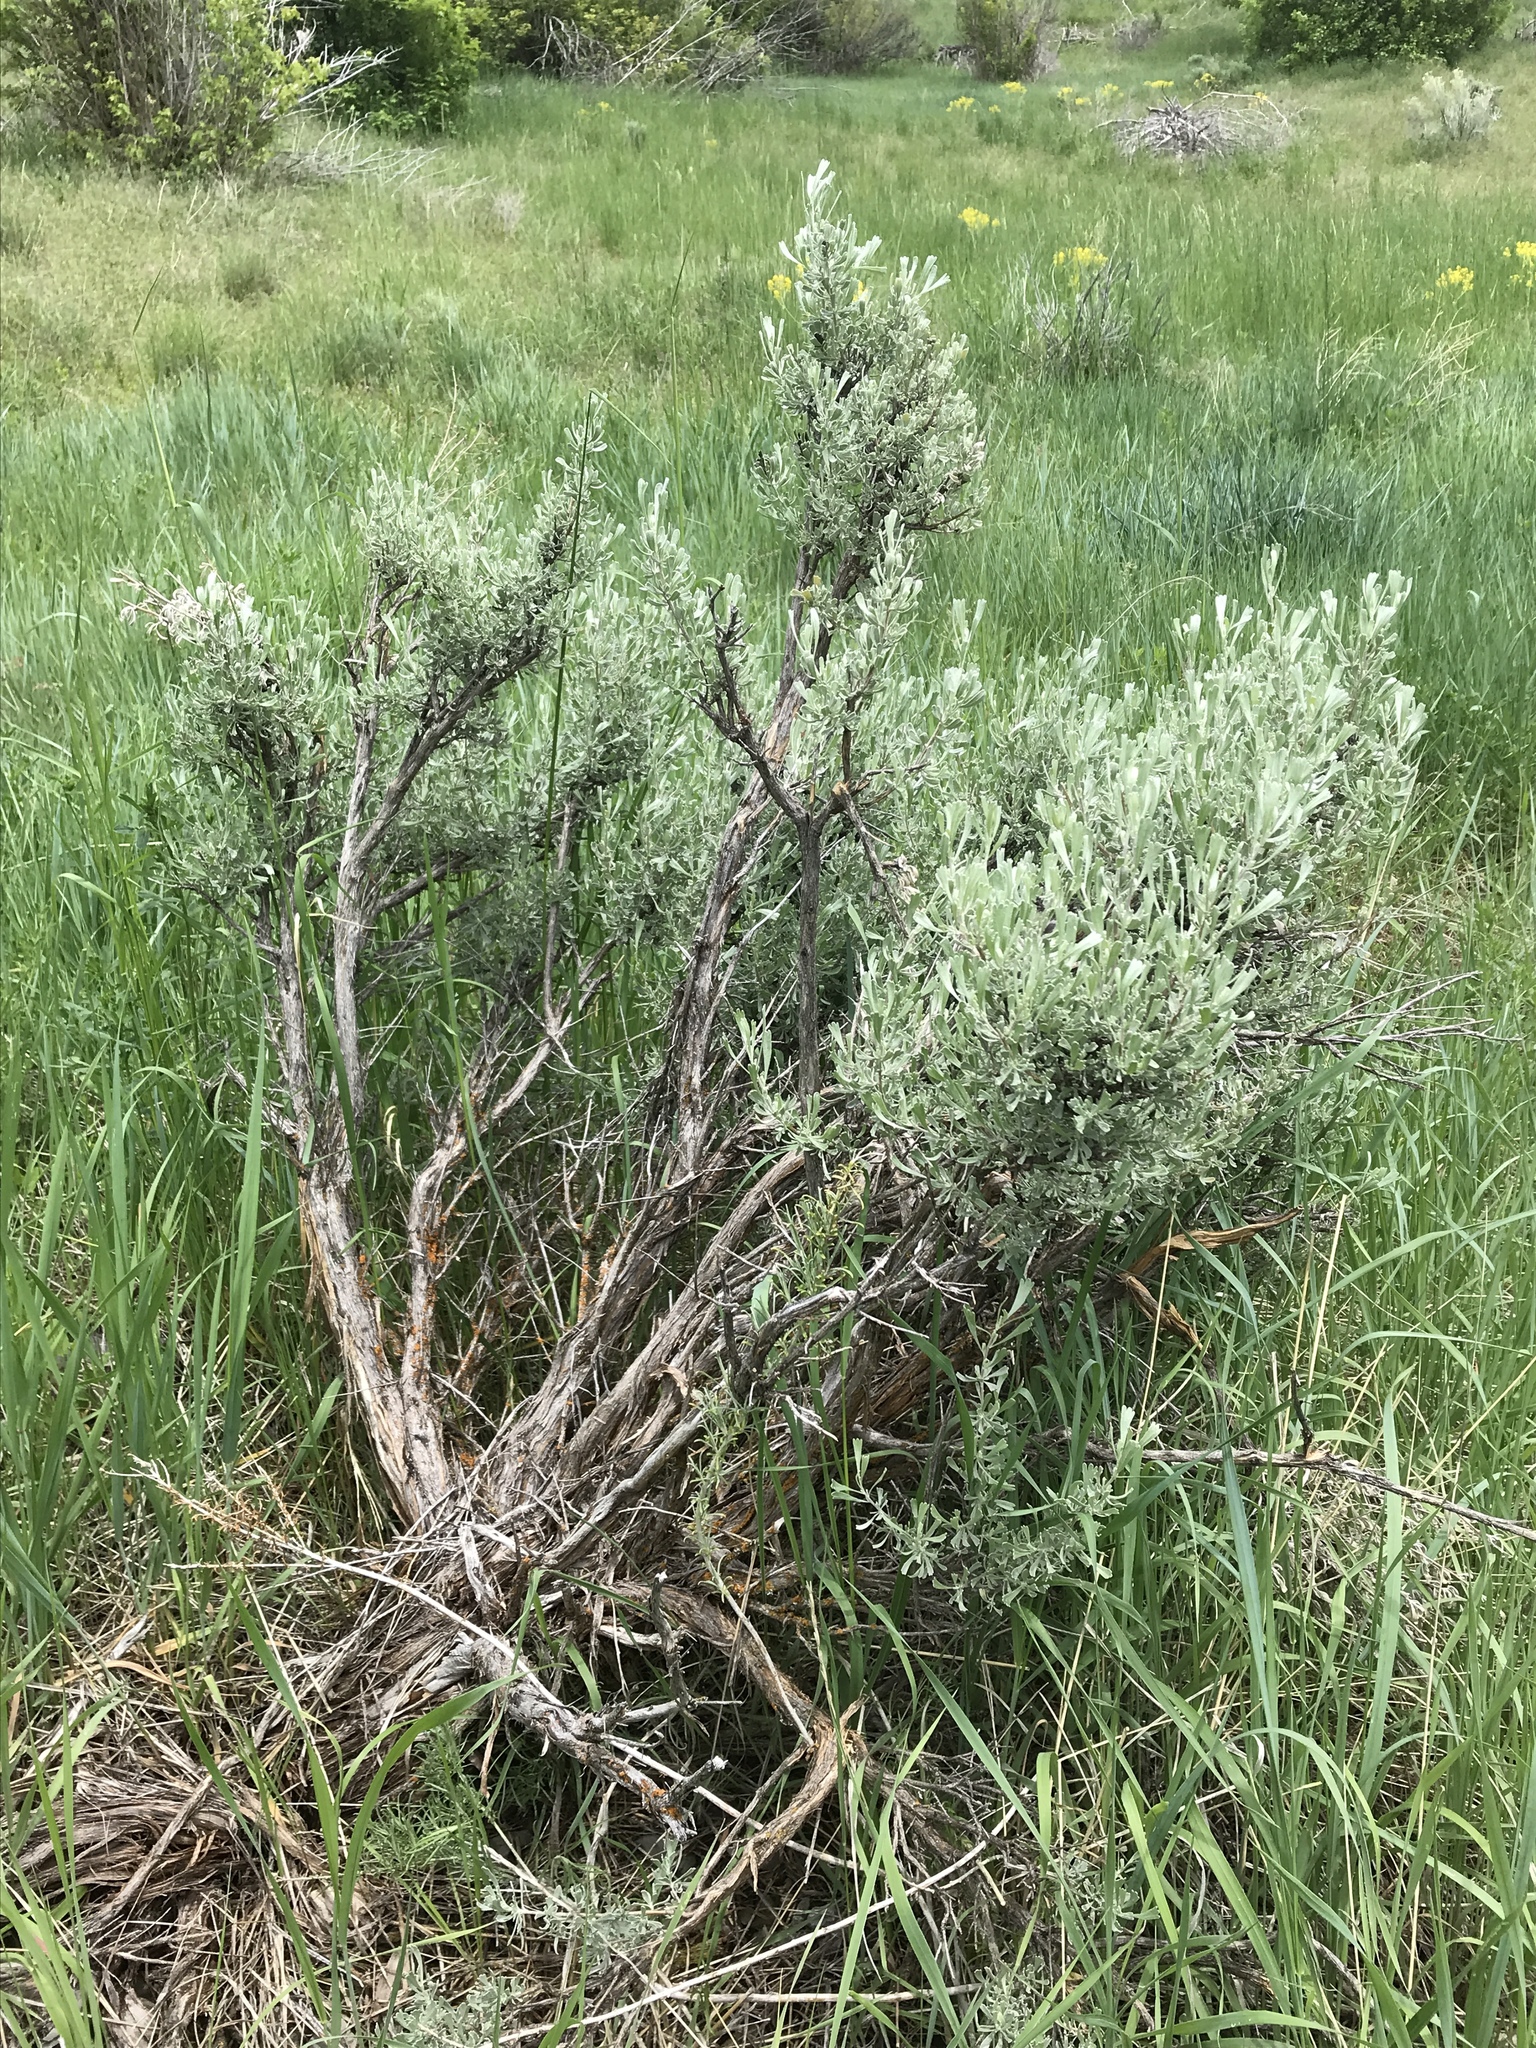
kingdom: Plantae
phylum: Tracheophyta
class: Magnoliopsida
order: Asterales
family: Asteraceae
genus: Artemisia
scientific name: Artemisia tridentata
